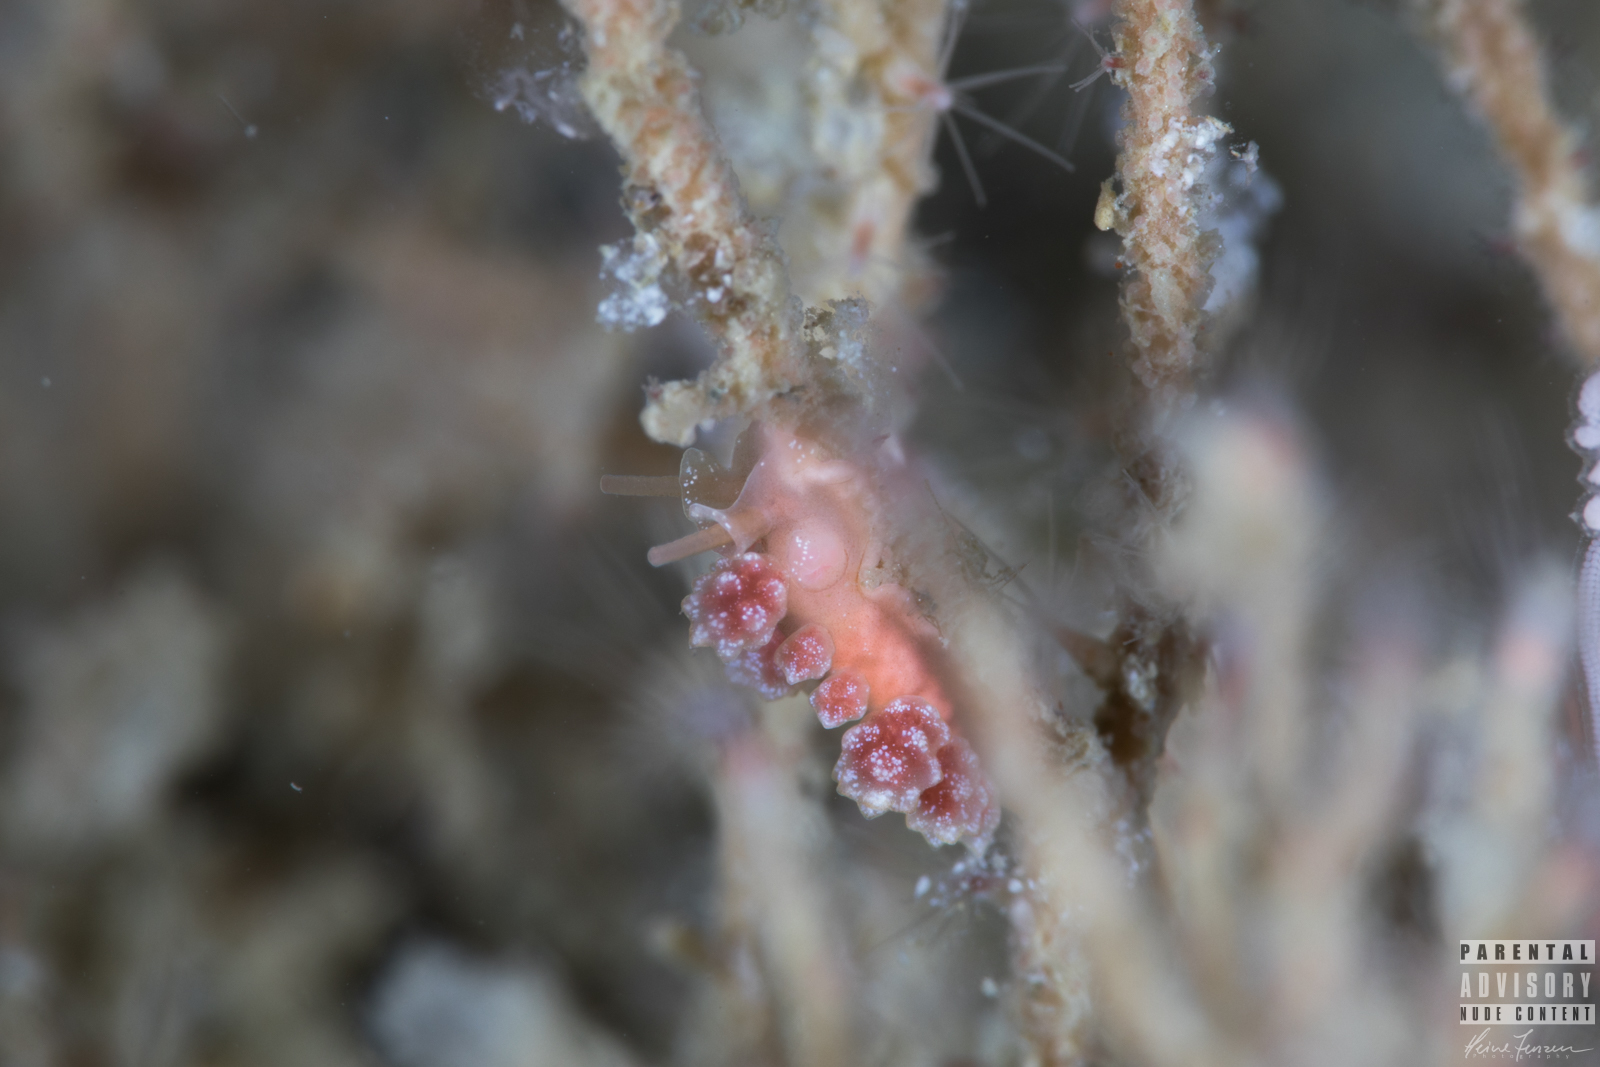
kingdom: Animalia
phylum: Mollusca
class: Gastropoda
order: Nudibranchia
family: Dotidae
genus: Doto
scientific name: Doto fragilis
